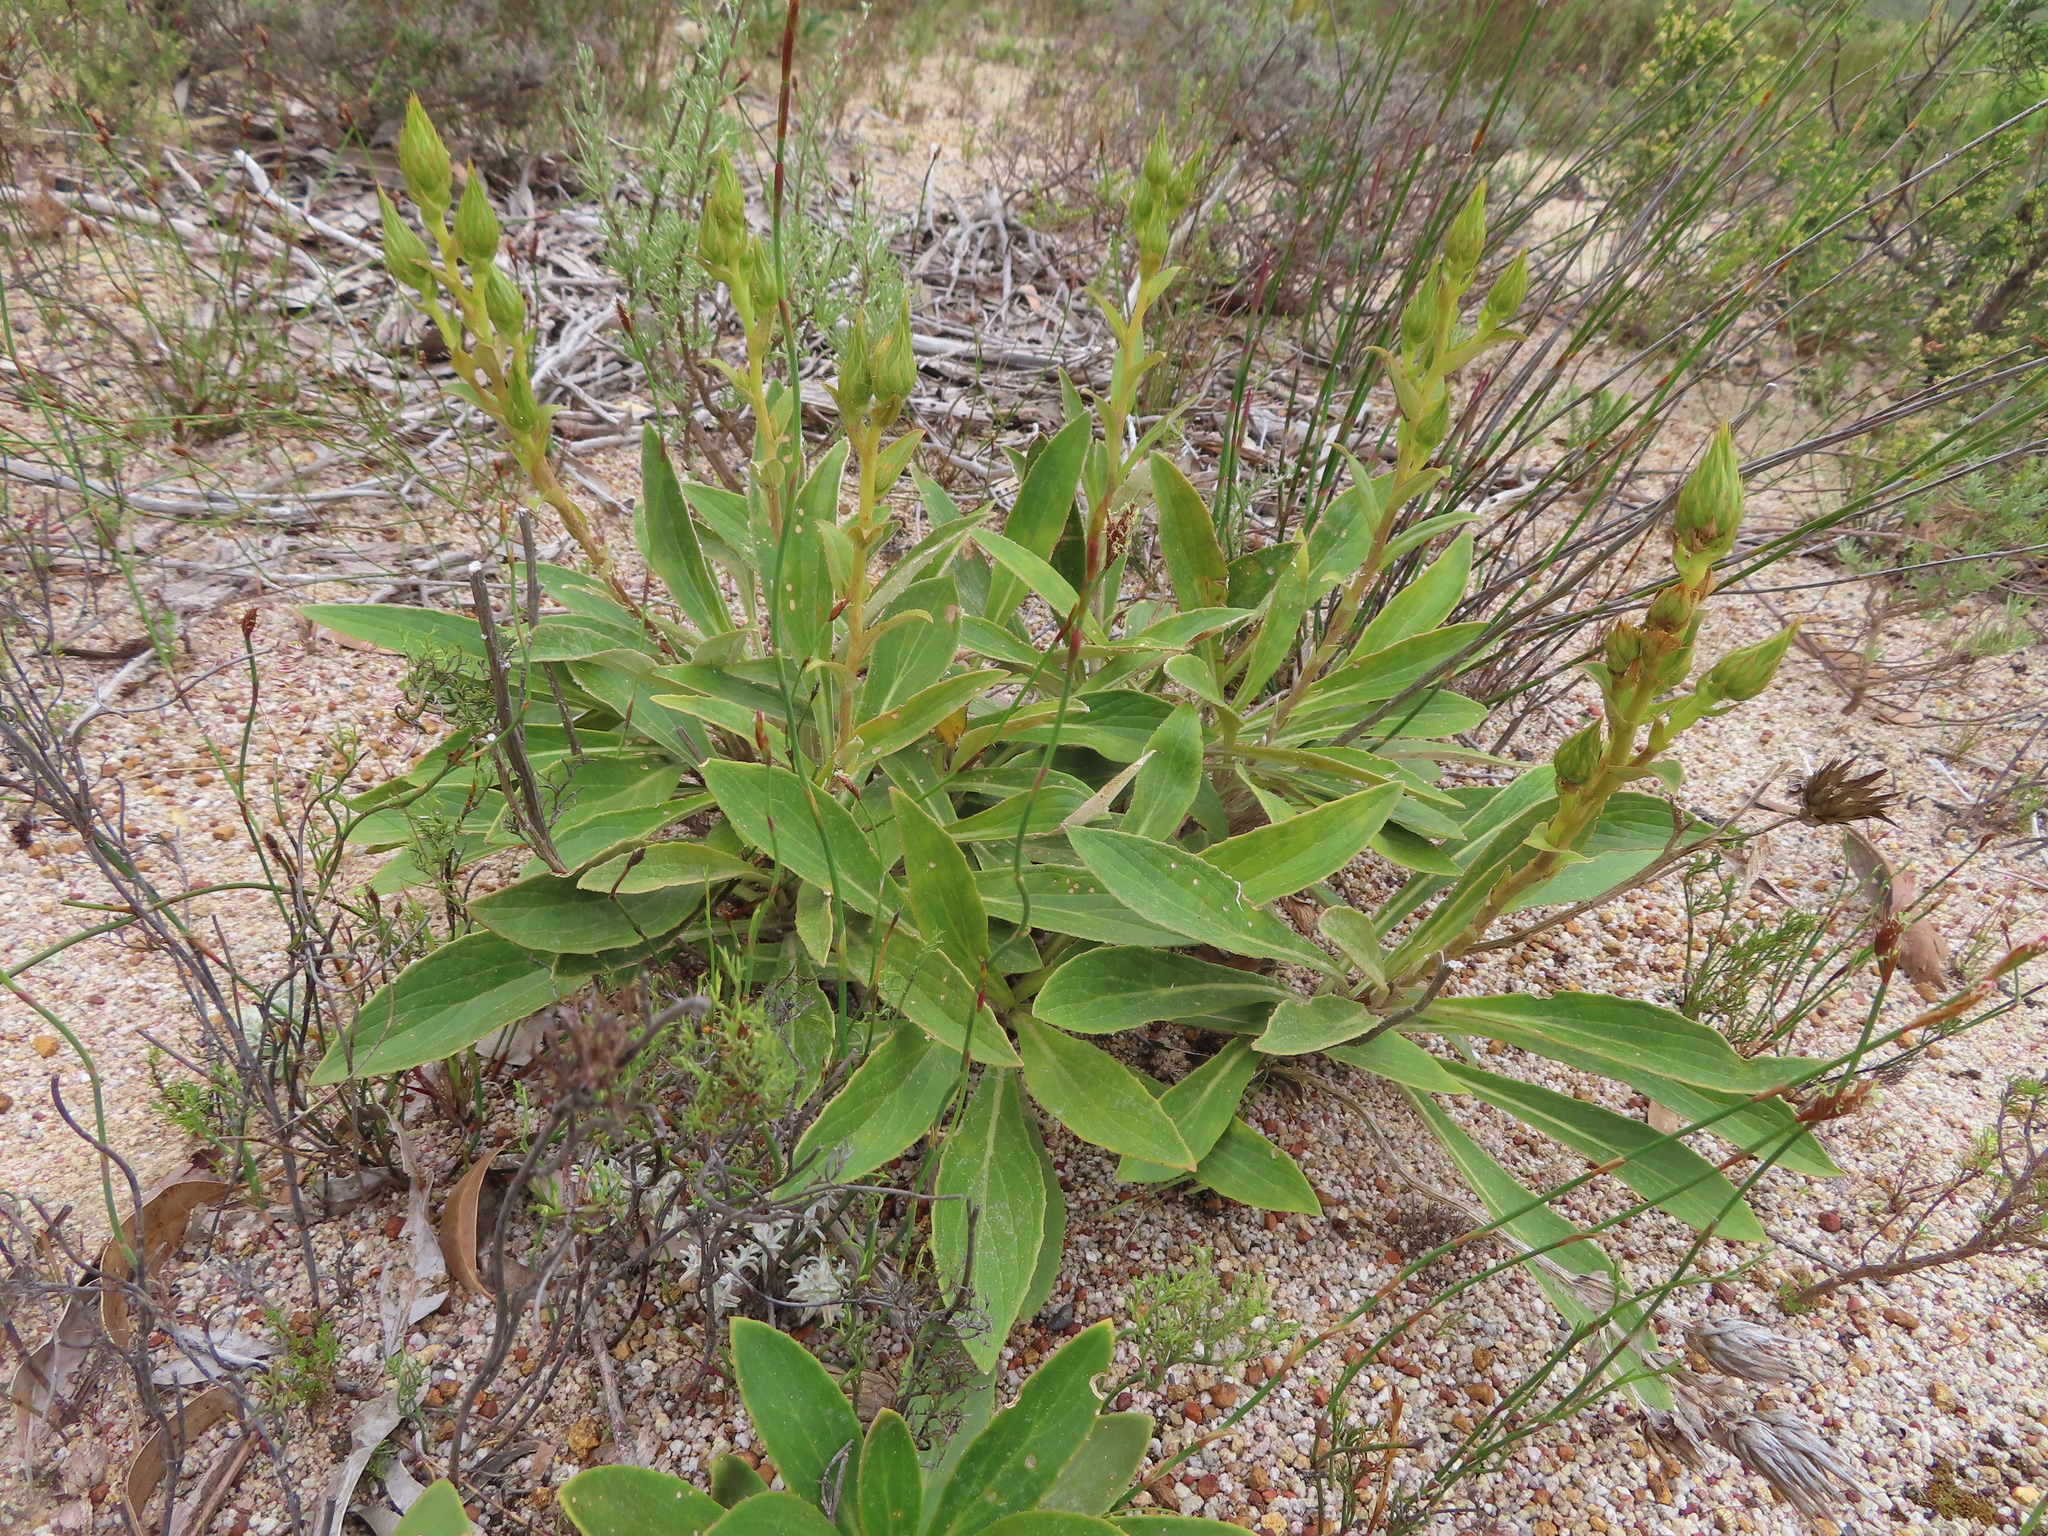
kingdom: Plantae
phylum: Tracheophyta
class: Magnoliopsida
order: Asterales
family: Asteraceae
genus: Berkheya
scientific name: Berkheya herbacea
